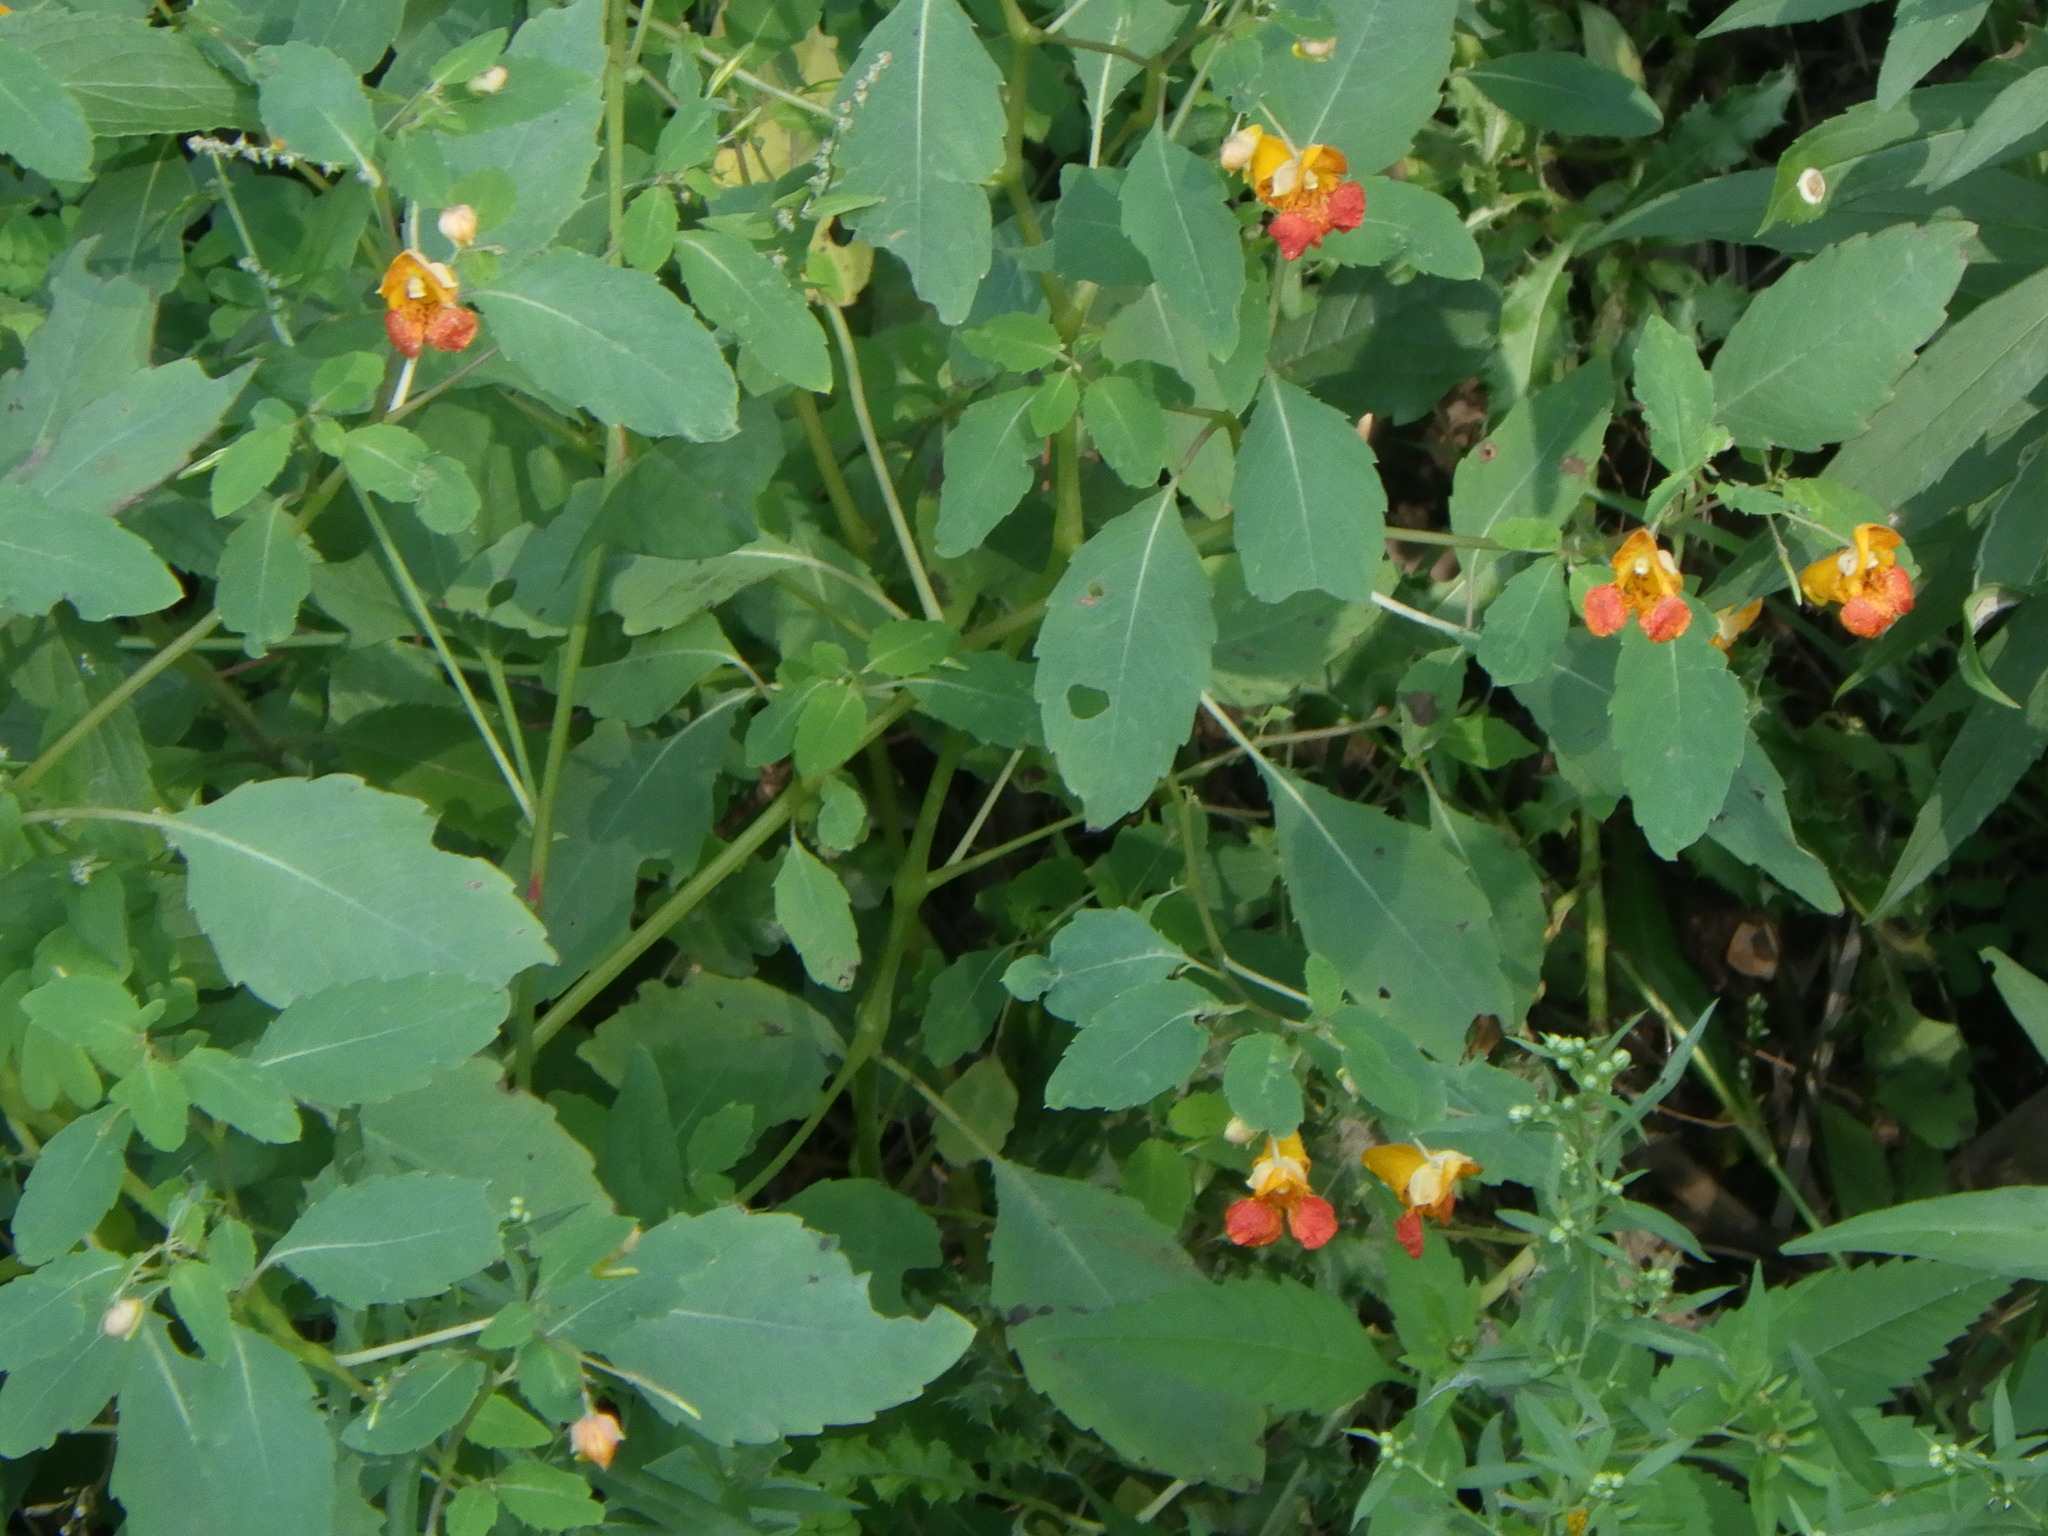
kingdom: Plantae
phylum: Tracheophyta
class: Magnoliopsida
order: Ericales
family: Balsaminaceae
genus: Impatiens
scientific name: Impatiens capensis
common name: Orange balsam
